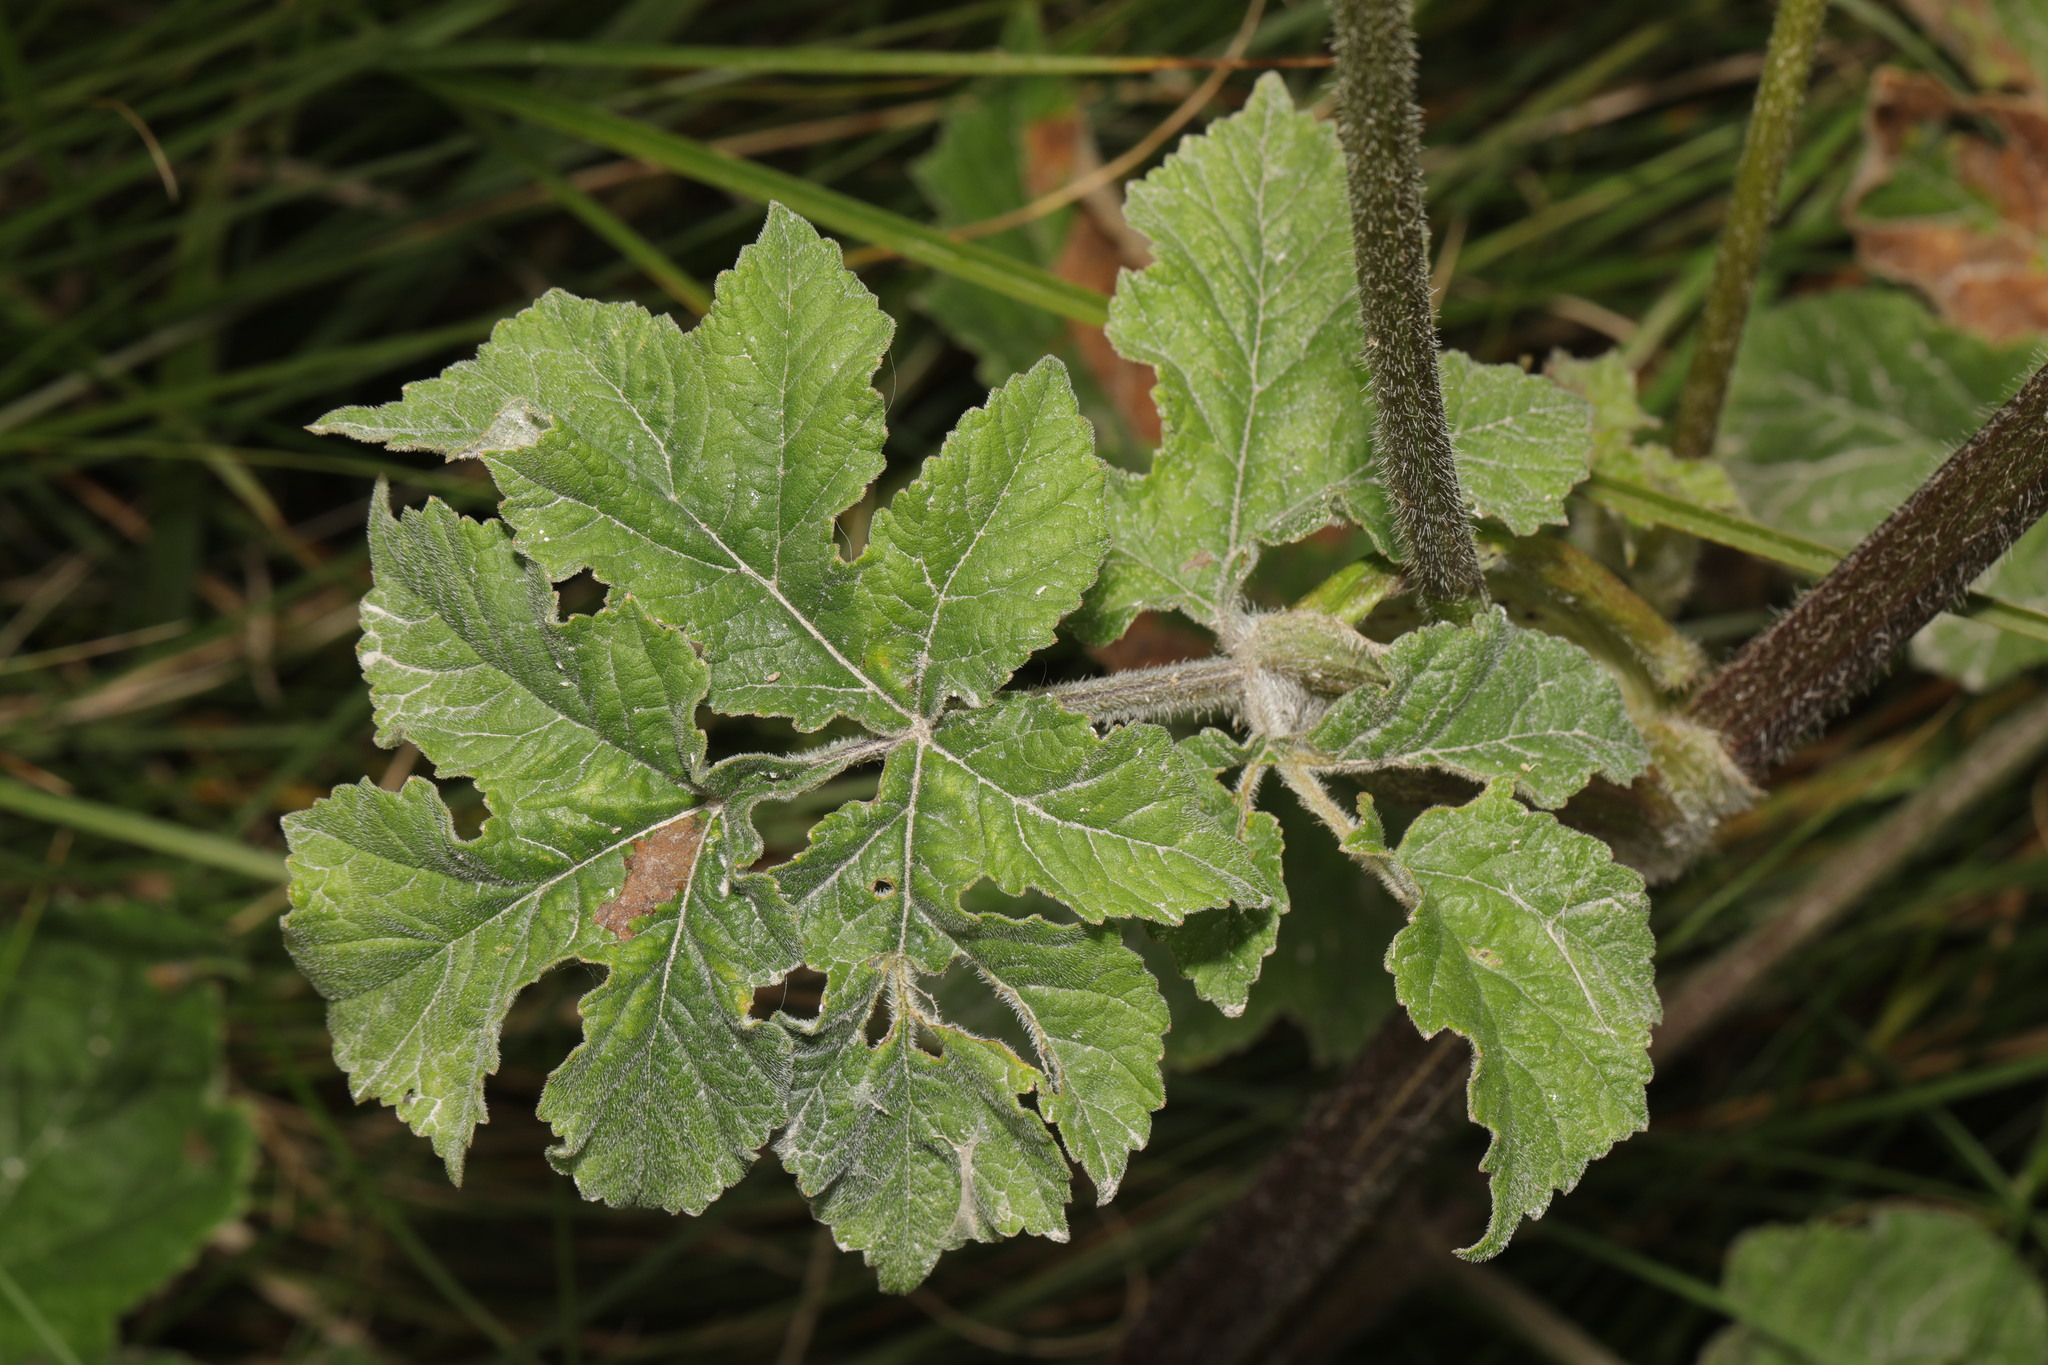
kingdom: Plantae
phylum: Tracheophyta
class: Magnoliopsida
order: Apiales
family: Apiaceae
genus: Heracleum
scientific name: Heracleum sphondylium
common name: Hogweed
